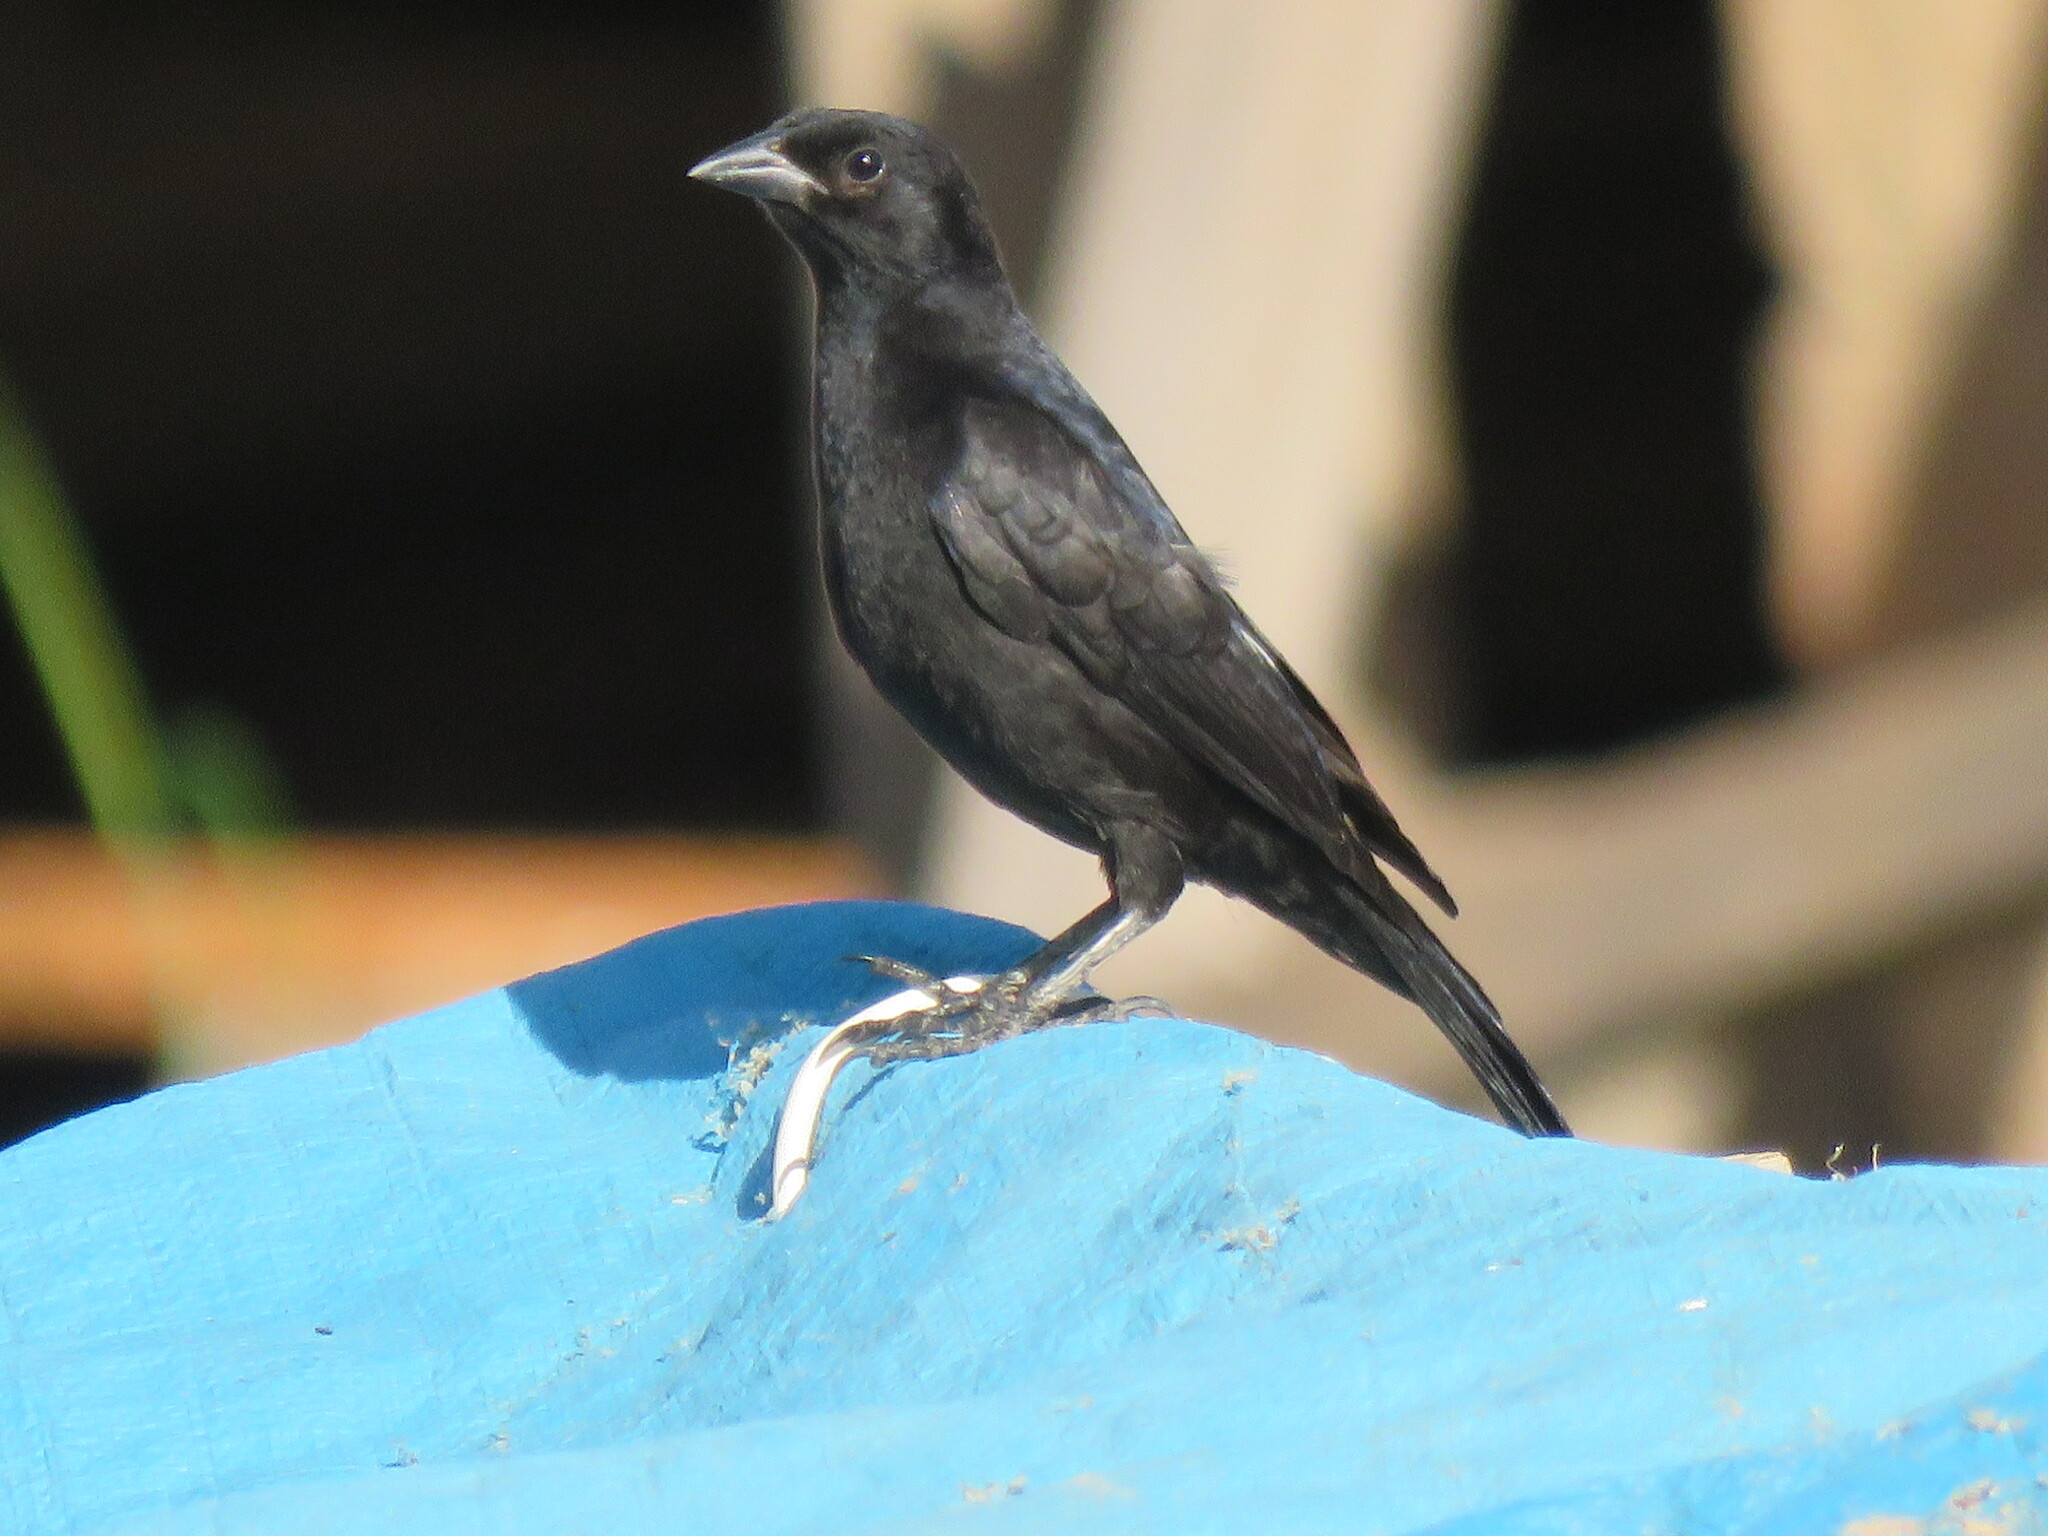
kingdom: Animalia
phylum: Chordata
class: Aves
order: Passeriformes
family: Icteridae
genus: Molothrus
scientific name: Molothrus bonariensis
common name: Shiny cowbird
